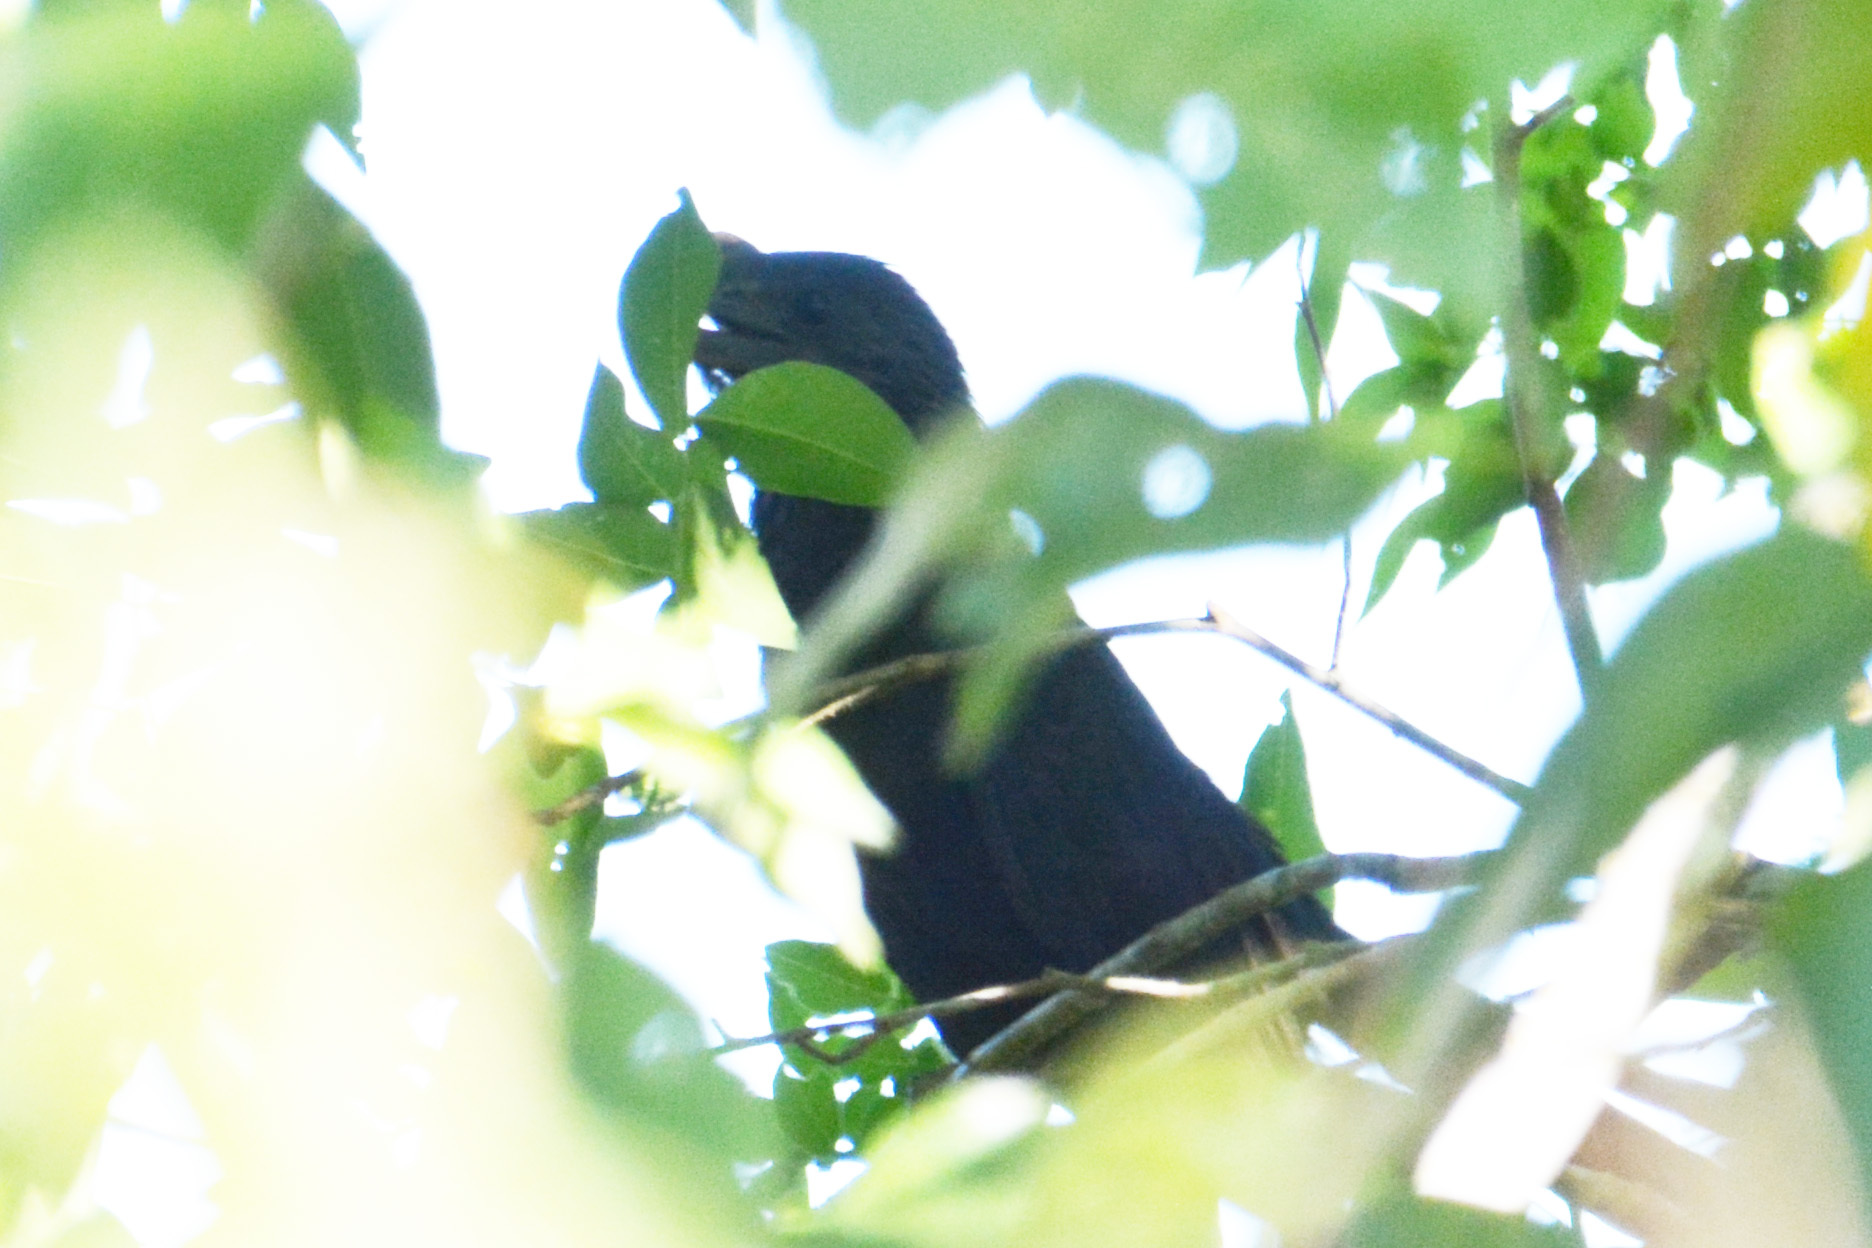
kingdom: Animalia
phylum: Chordata
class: Aves
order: Cuculiformes
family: Cuculidae
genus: Crotophaga
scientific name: Crotophaga ani
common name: Smooth-billed ani
